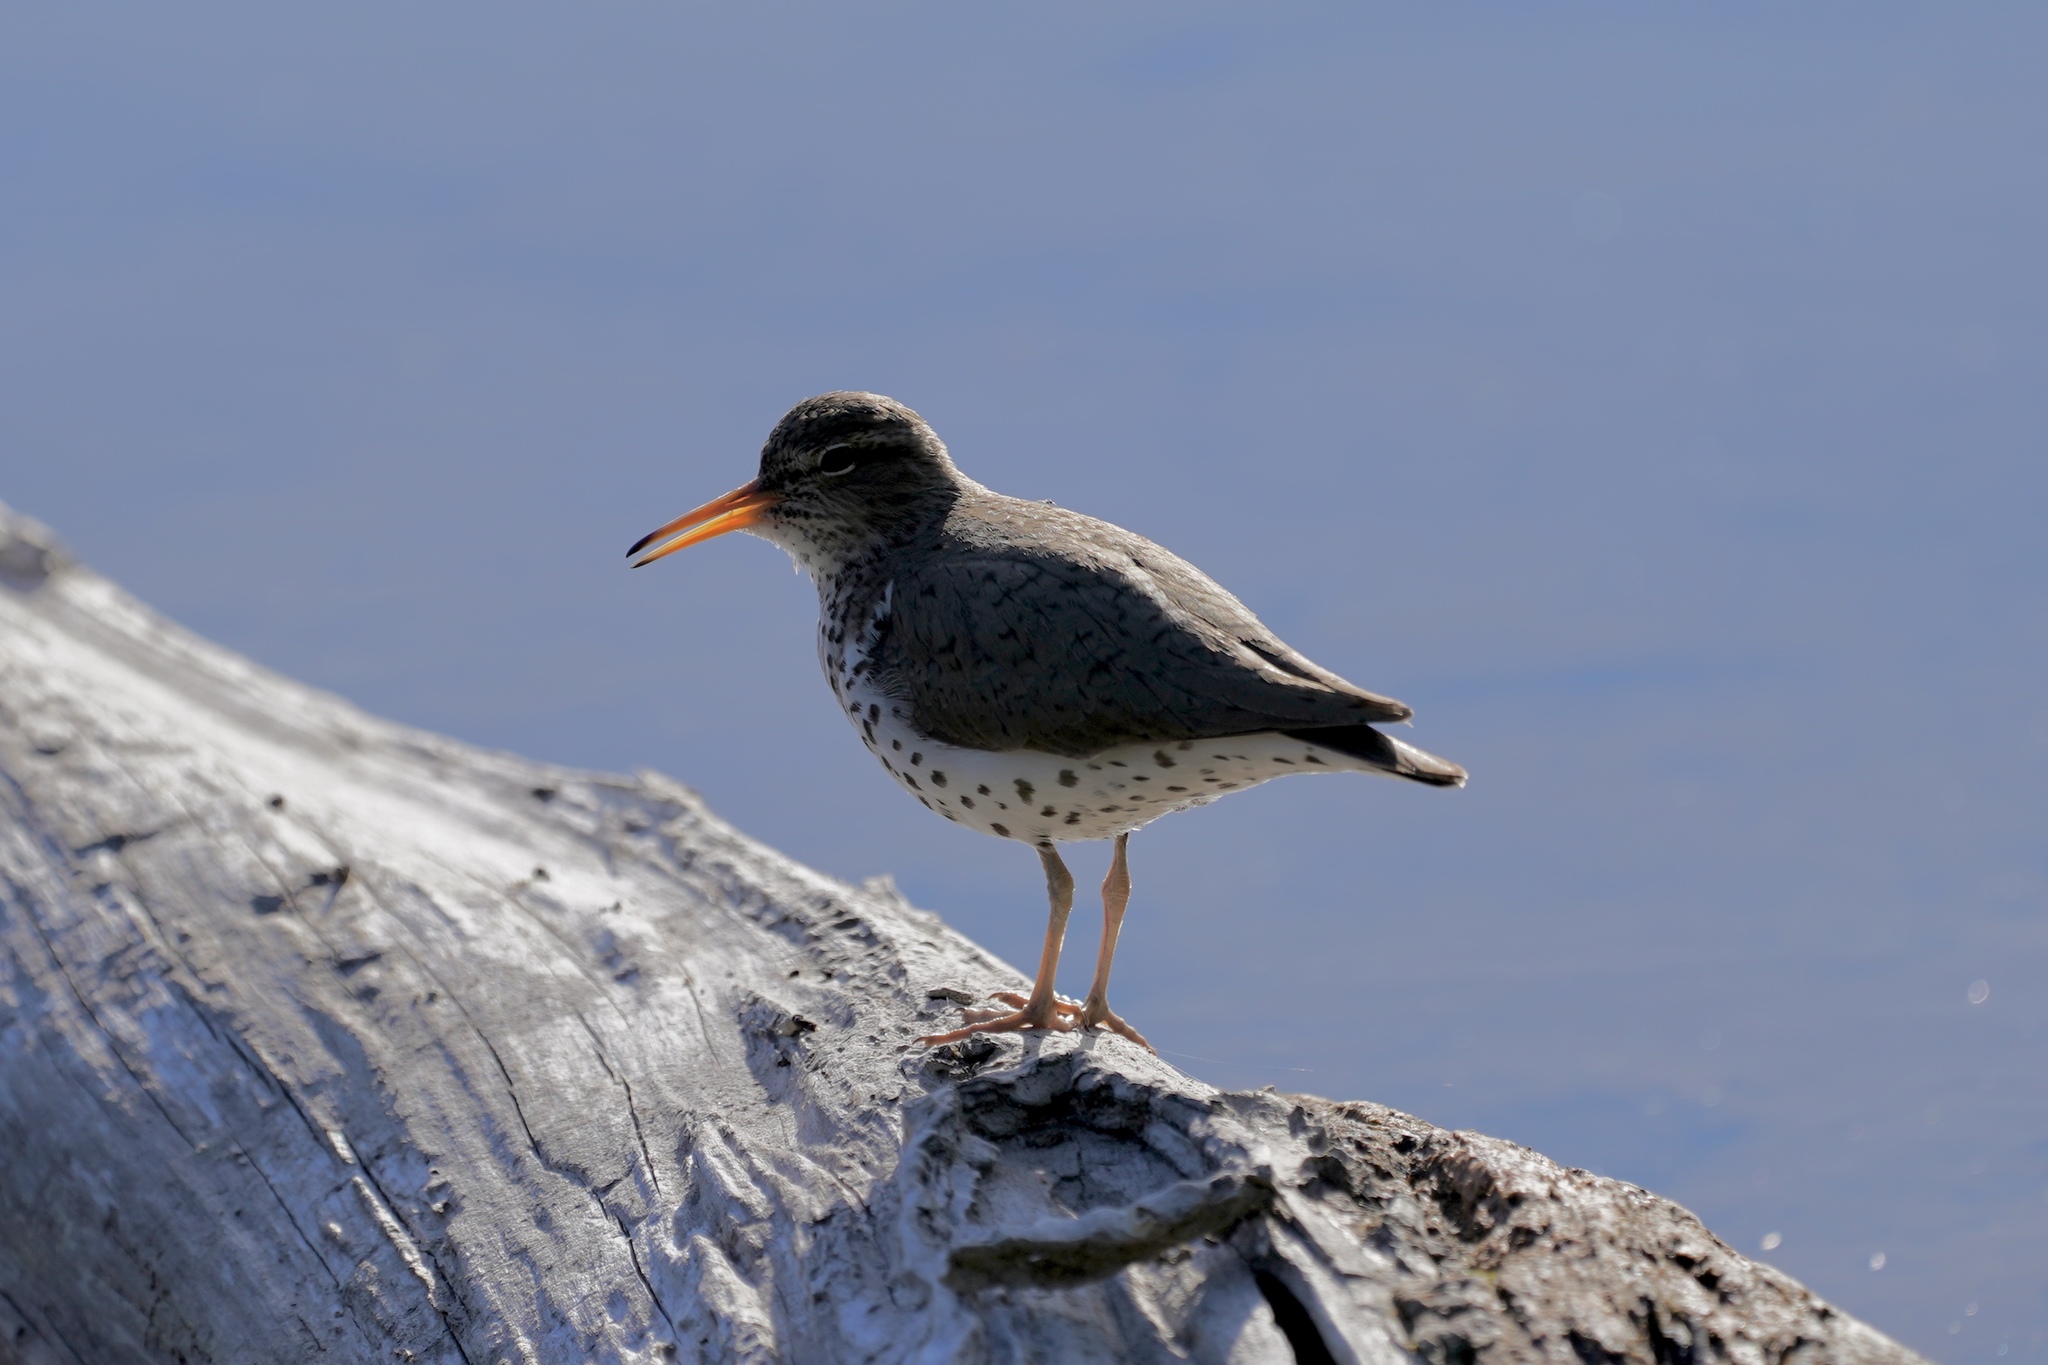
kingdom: Animalia
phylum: Chordata
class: Aves
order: Charadriiformes
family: Scolopacidae
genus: Actitis
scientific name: Actitis macularius
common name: Spotted sandpiper
